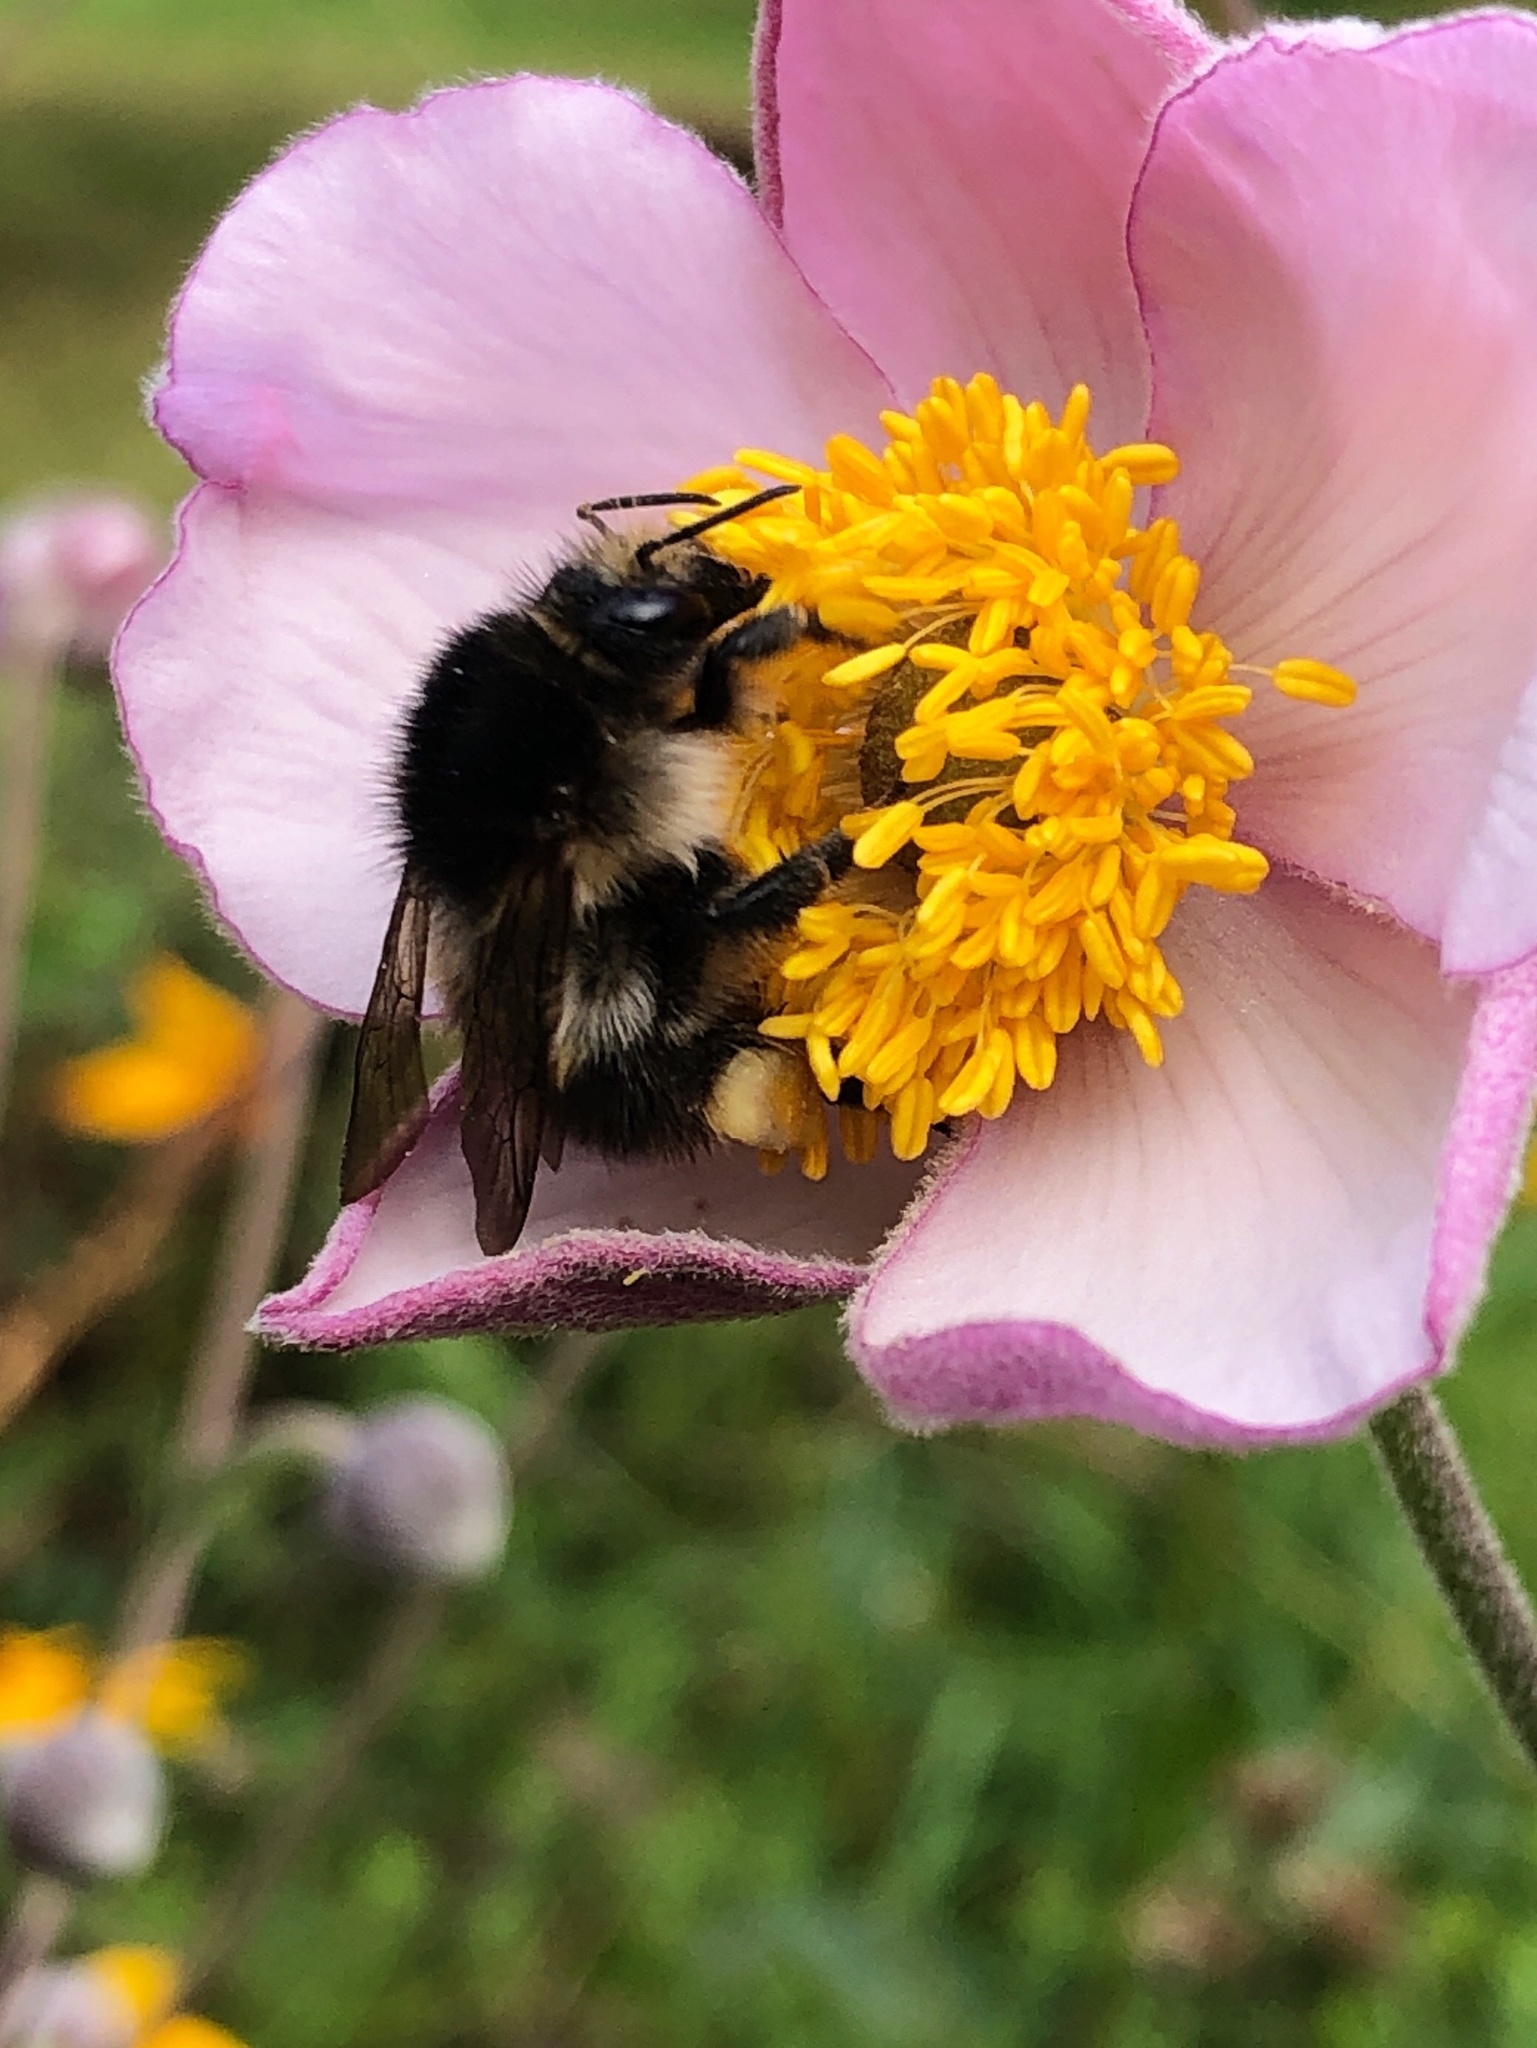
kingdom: Animalia
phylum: Arthropoda
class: Insecta
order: Hymenoptera
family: Apidae
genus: Bombus
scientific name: Bombus pascuorum
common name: Common carder bee
